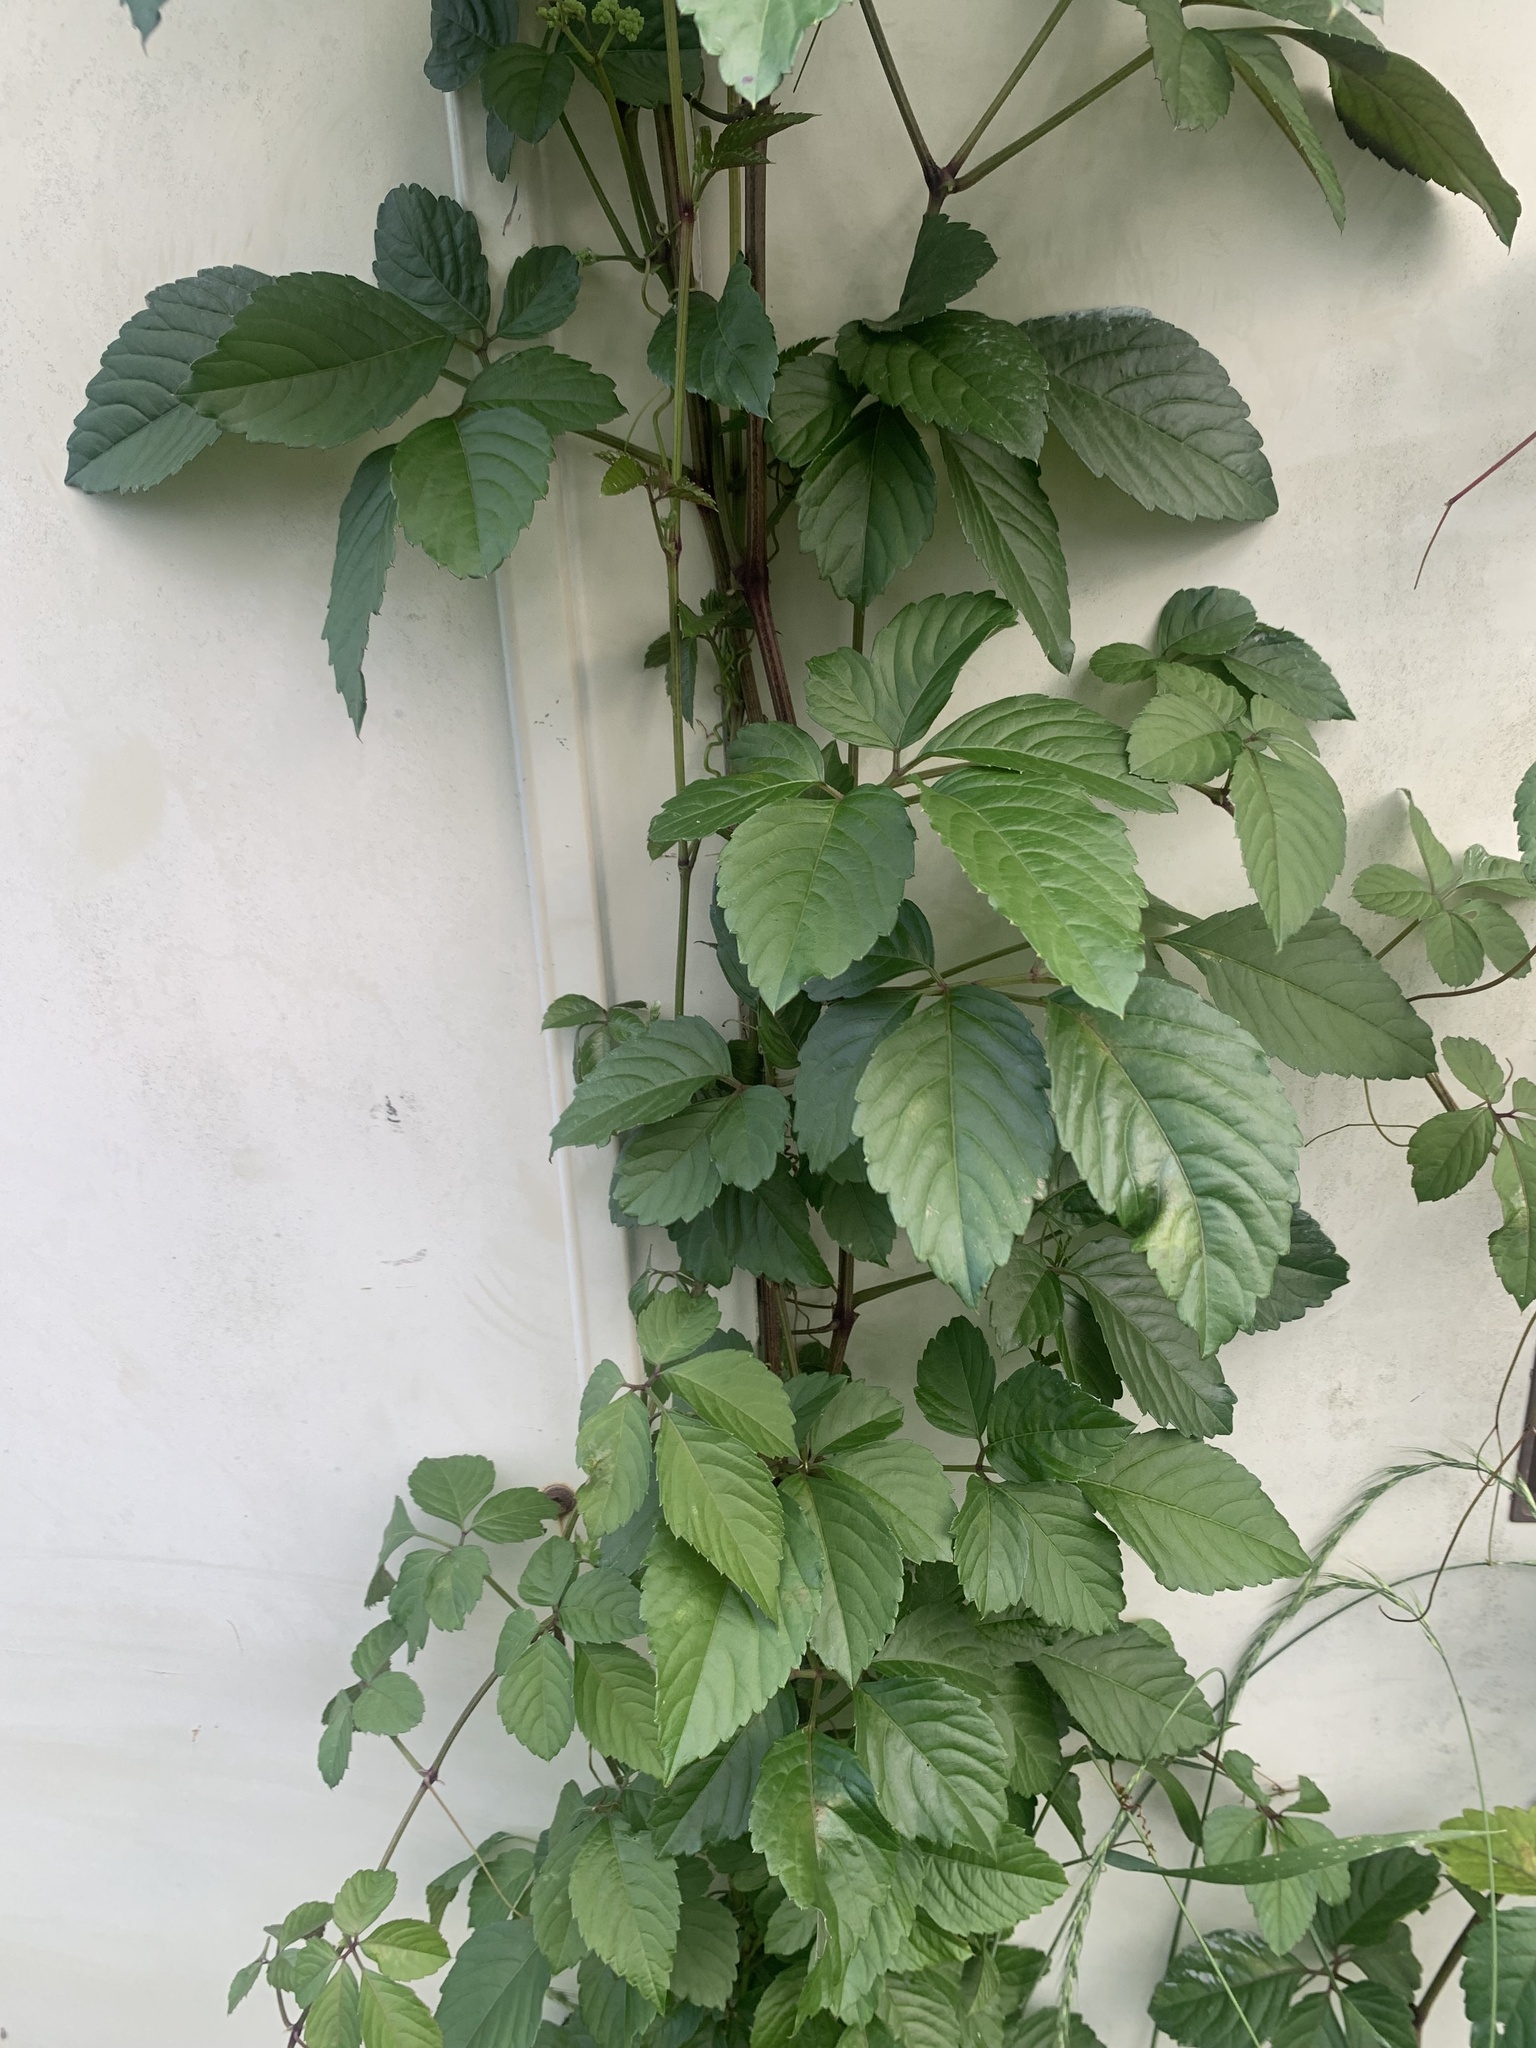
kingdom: Plantae
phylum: Tracheophyta
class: Magnoliopsida
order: Vitales
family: Vitaceae
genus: Causonis
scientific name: Causonis japonica
